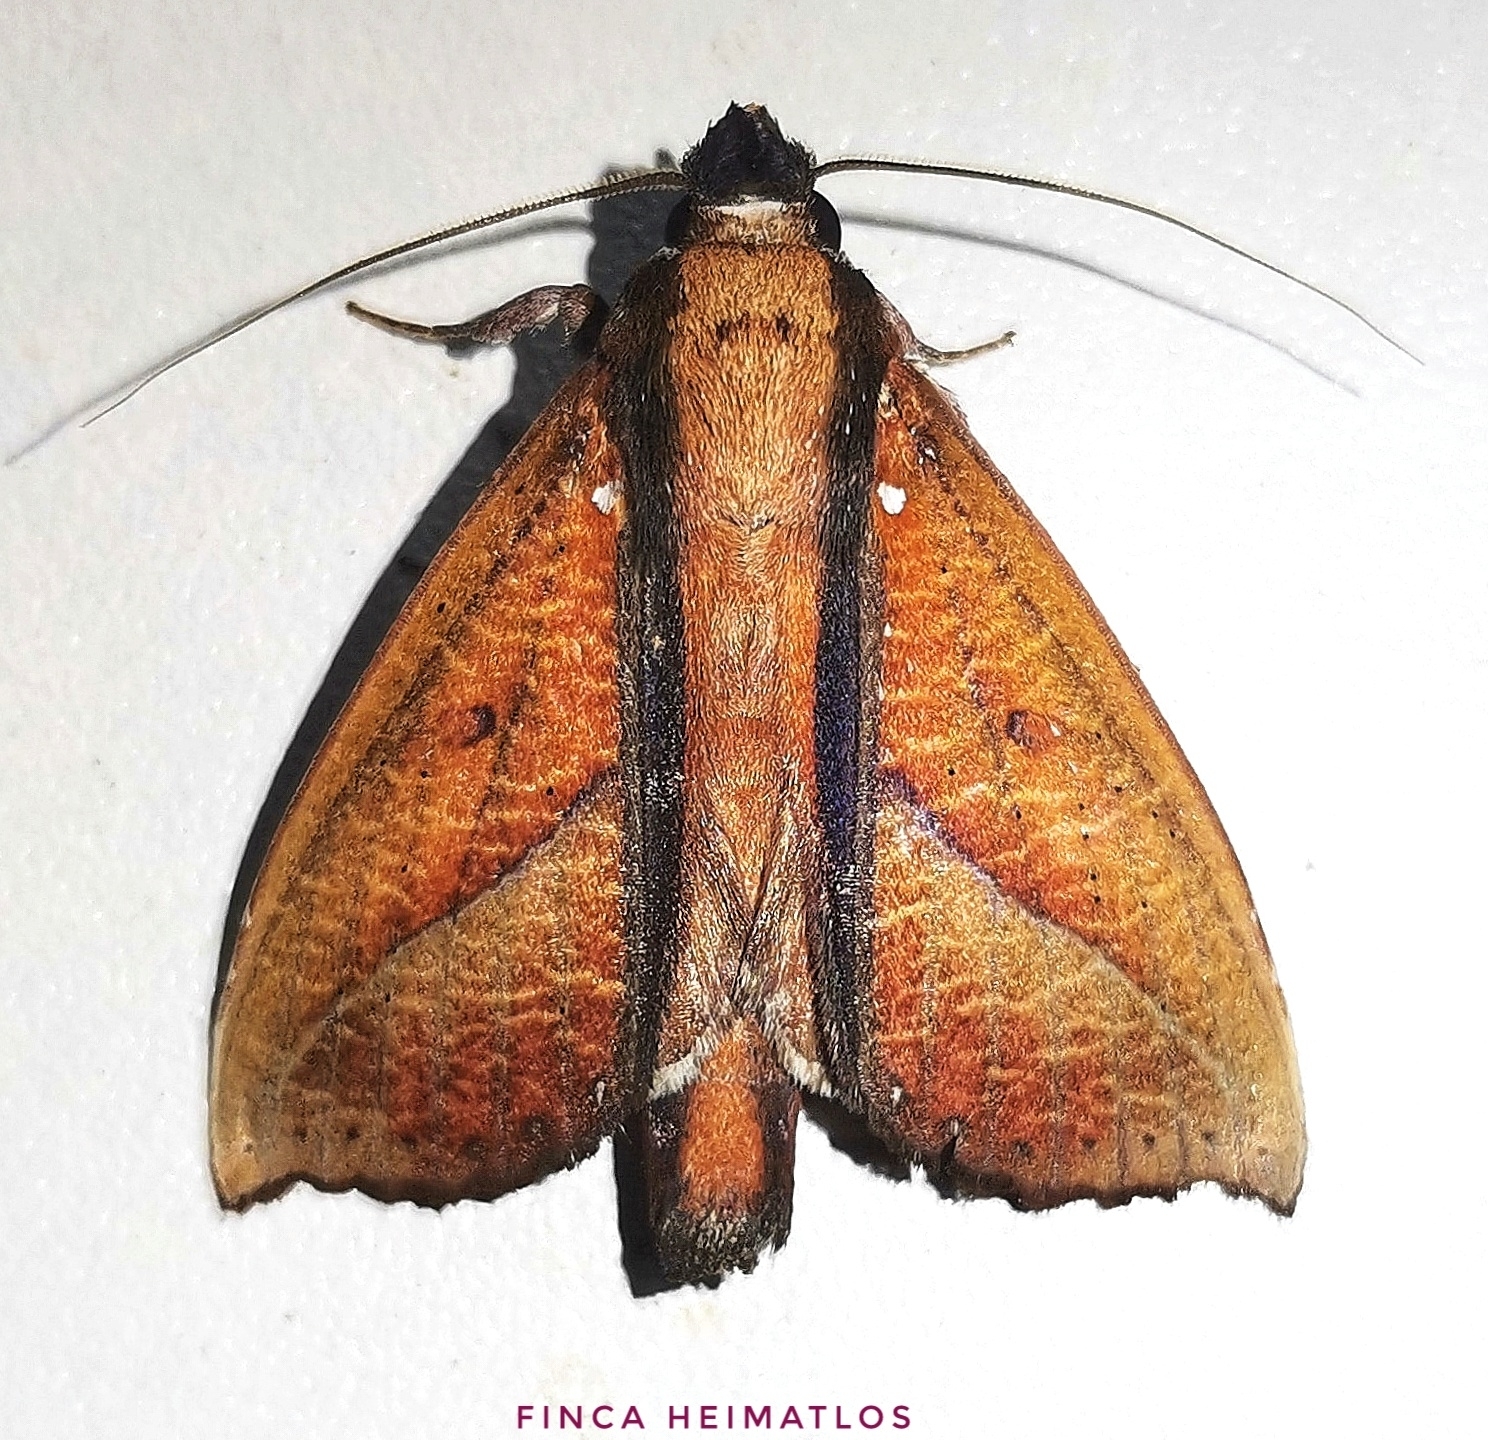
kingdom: Animalia
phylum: Arthropoda
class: Insecta
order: Lepidoptera
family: Notodontidae
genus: Strophocerus
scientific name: Strophocerus albonotata
